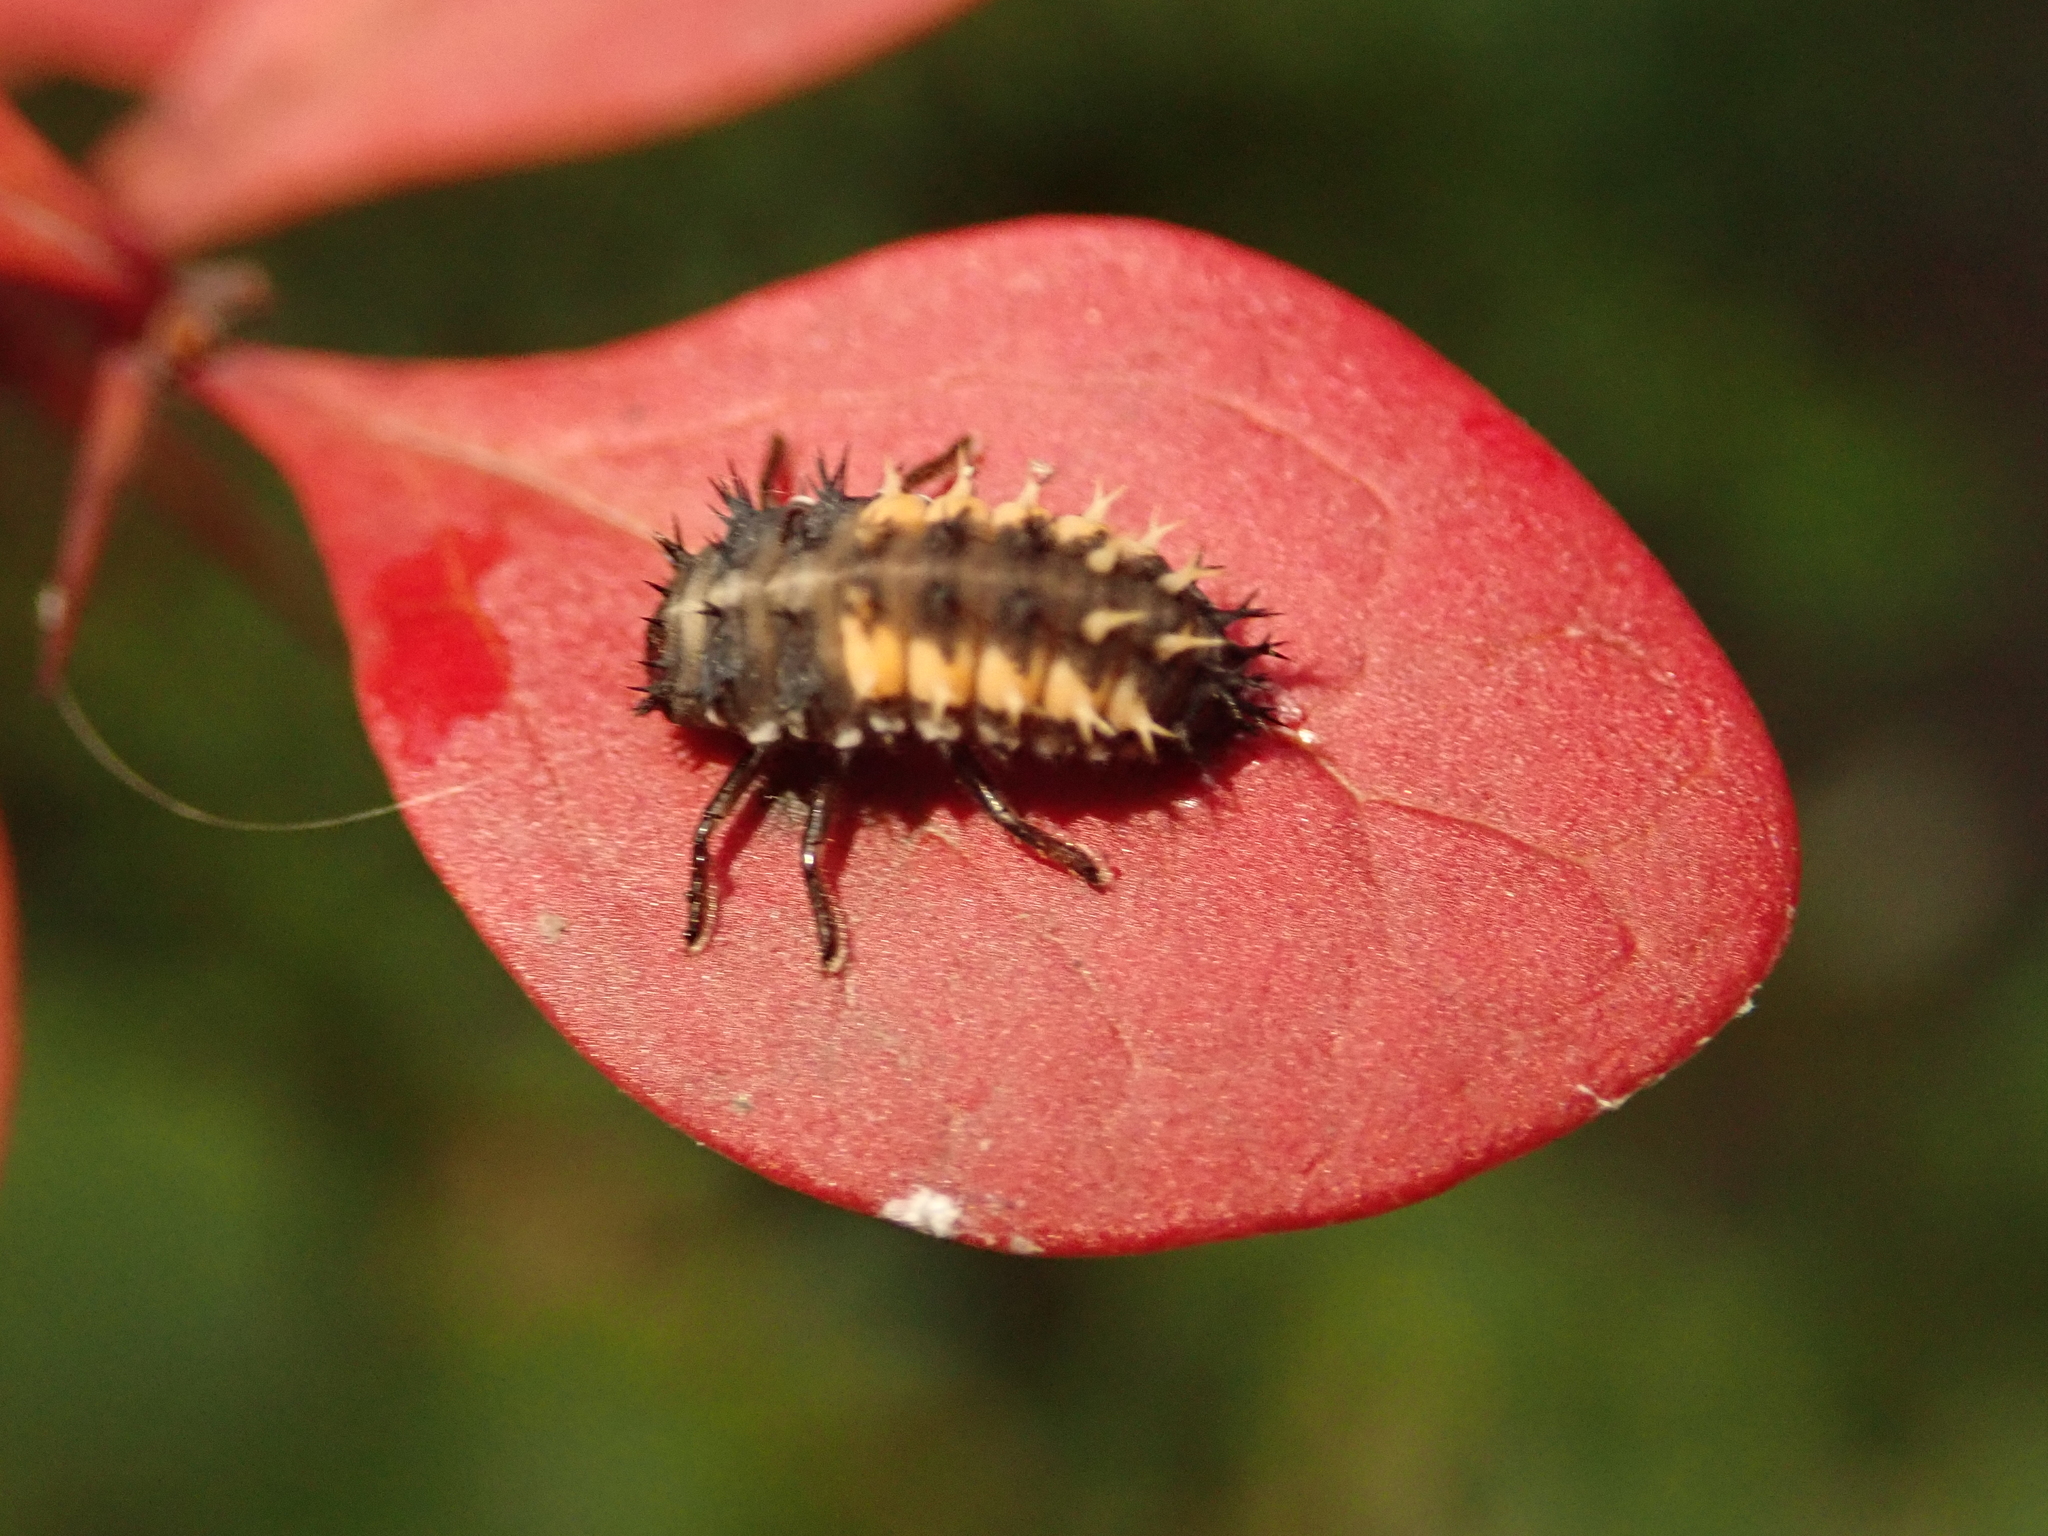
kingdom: Animalia
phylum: Arthropoda
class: Insecta
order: Coleoptera
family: Coccinellidae
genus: Harmonia
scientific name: Harmonia axyridis
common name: Harlequin ladybird
